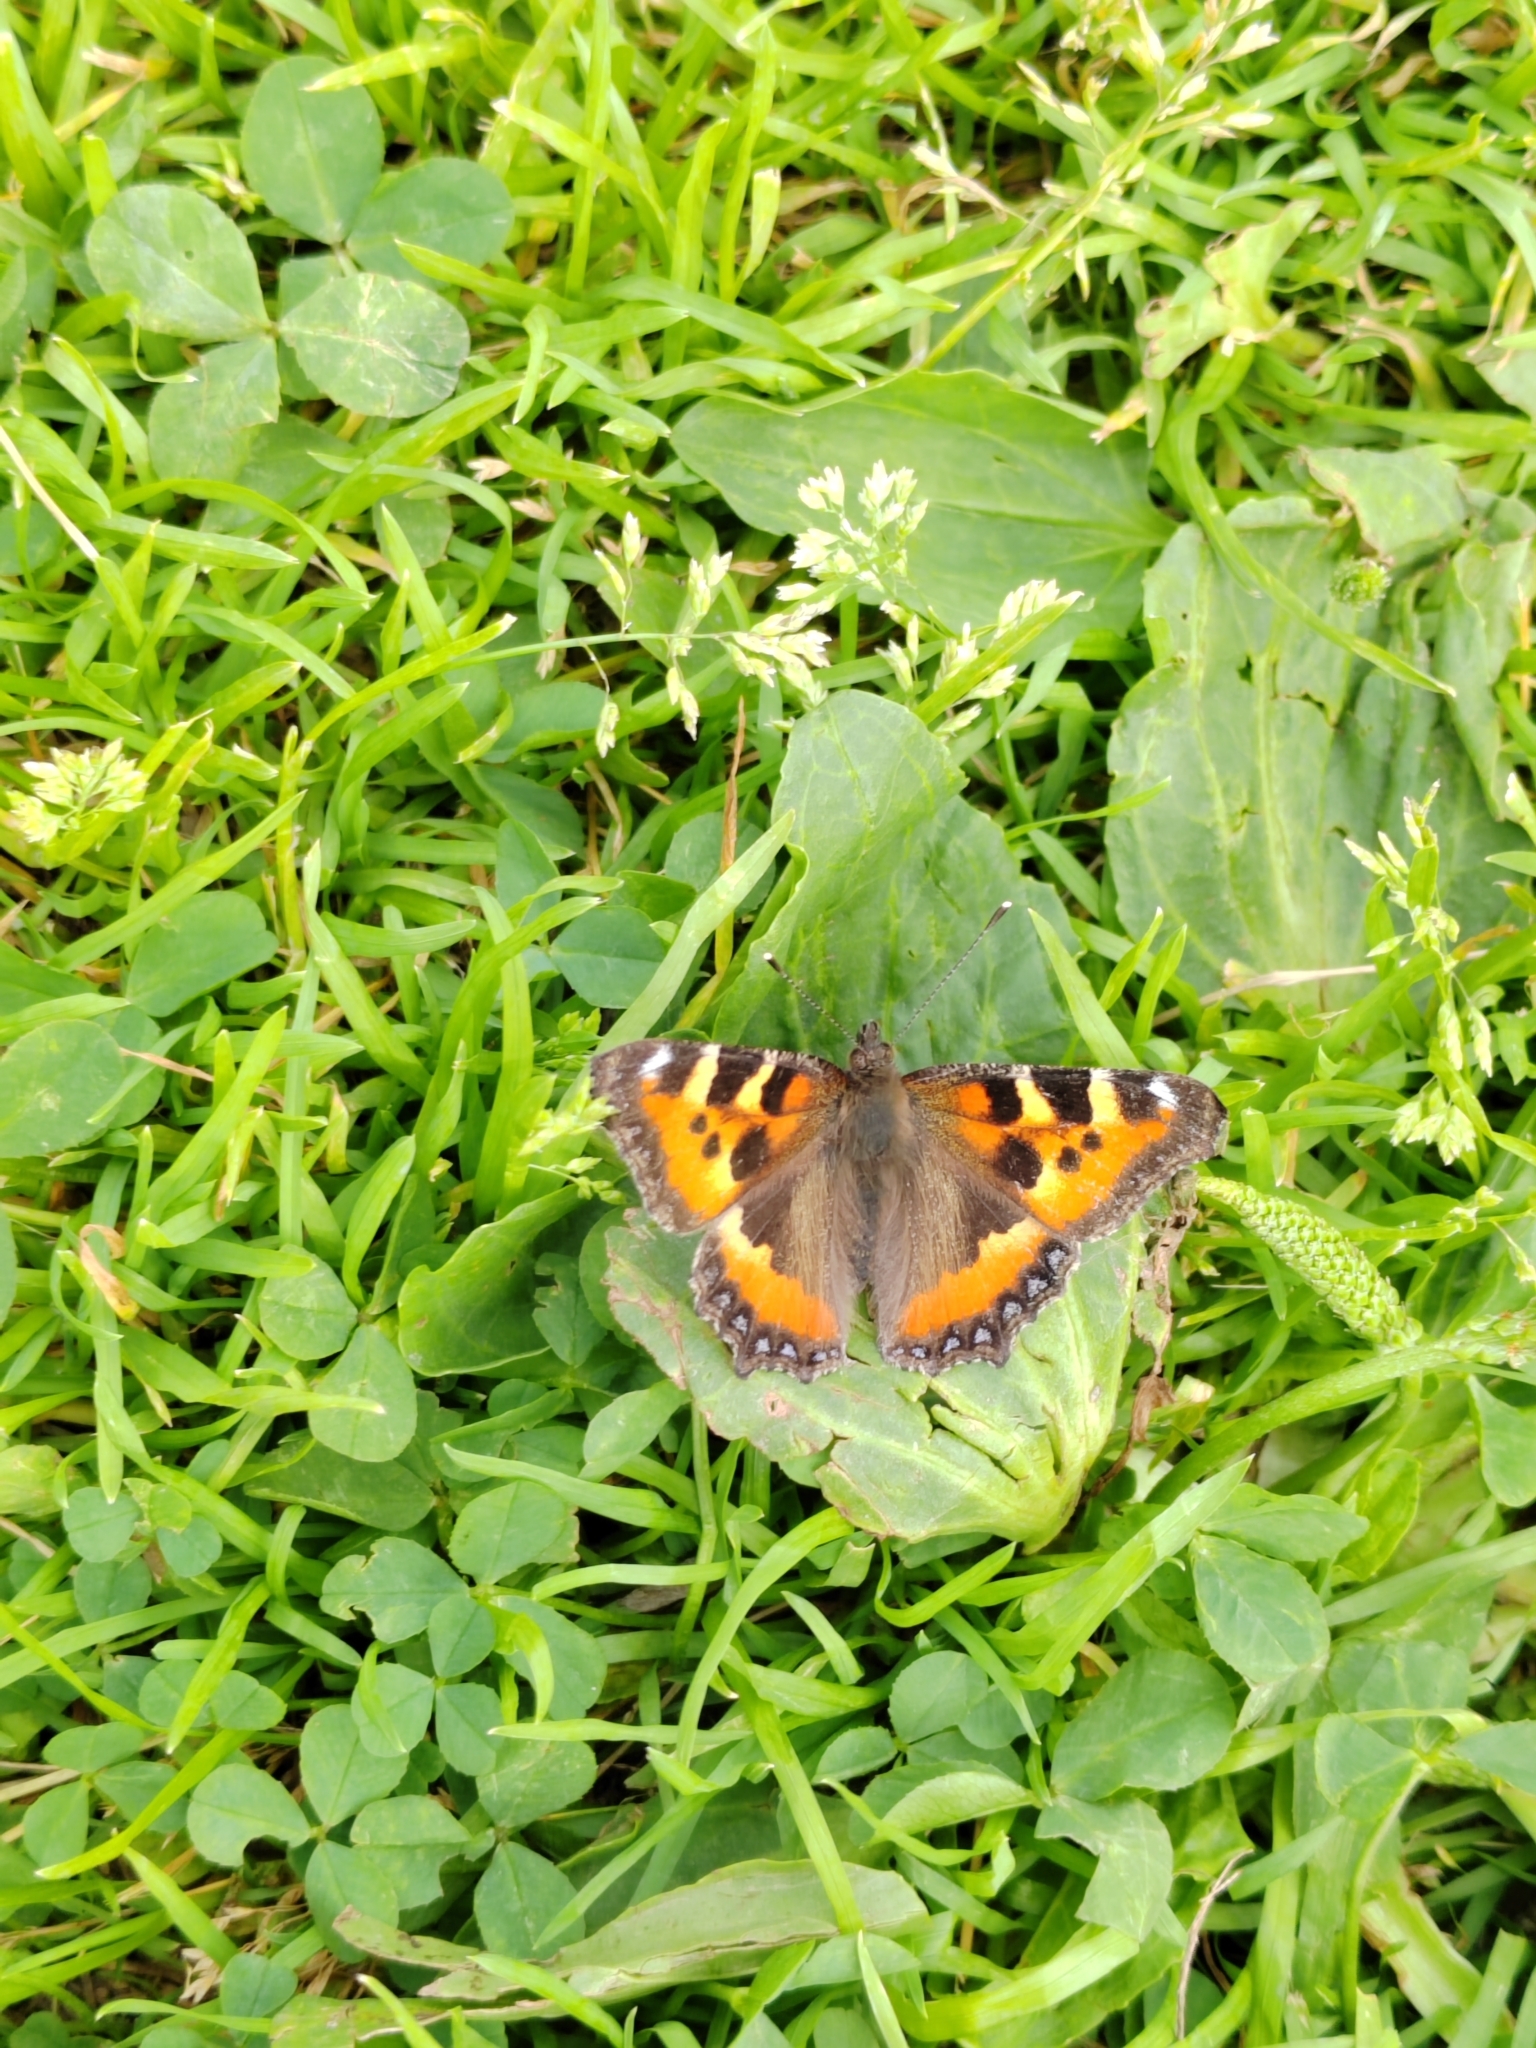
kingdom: Animalia
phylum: Arthropoda
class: Insecta
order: Lepidoptera
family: Nymphalidae
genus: Aglais
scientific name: Aglais urticae
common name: Small tortoiseshell
